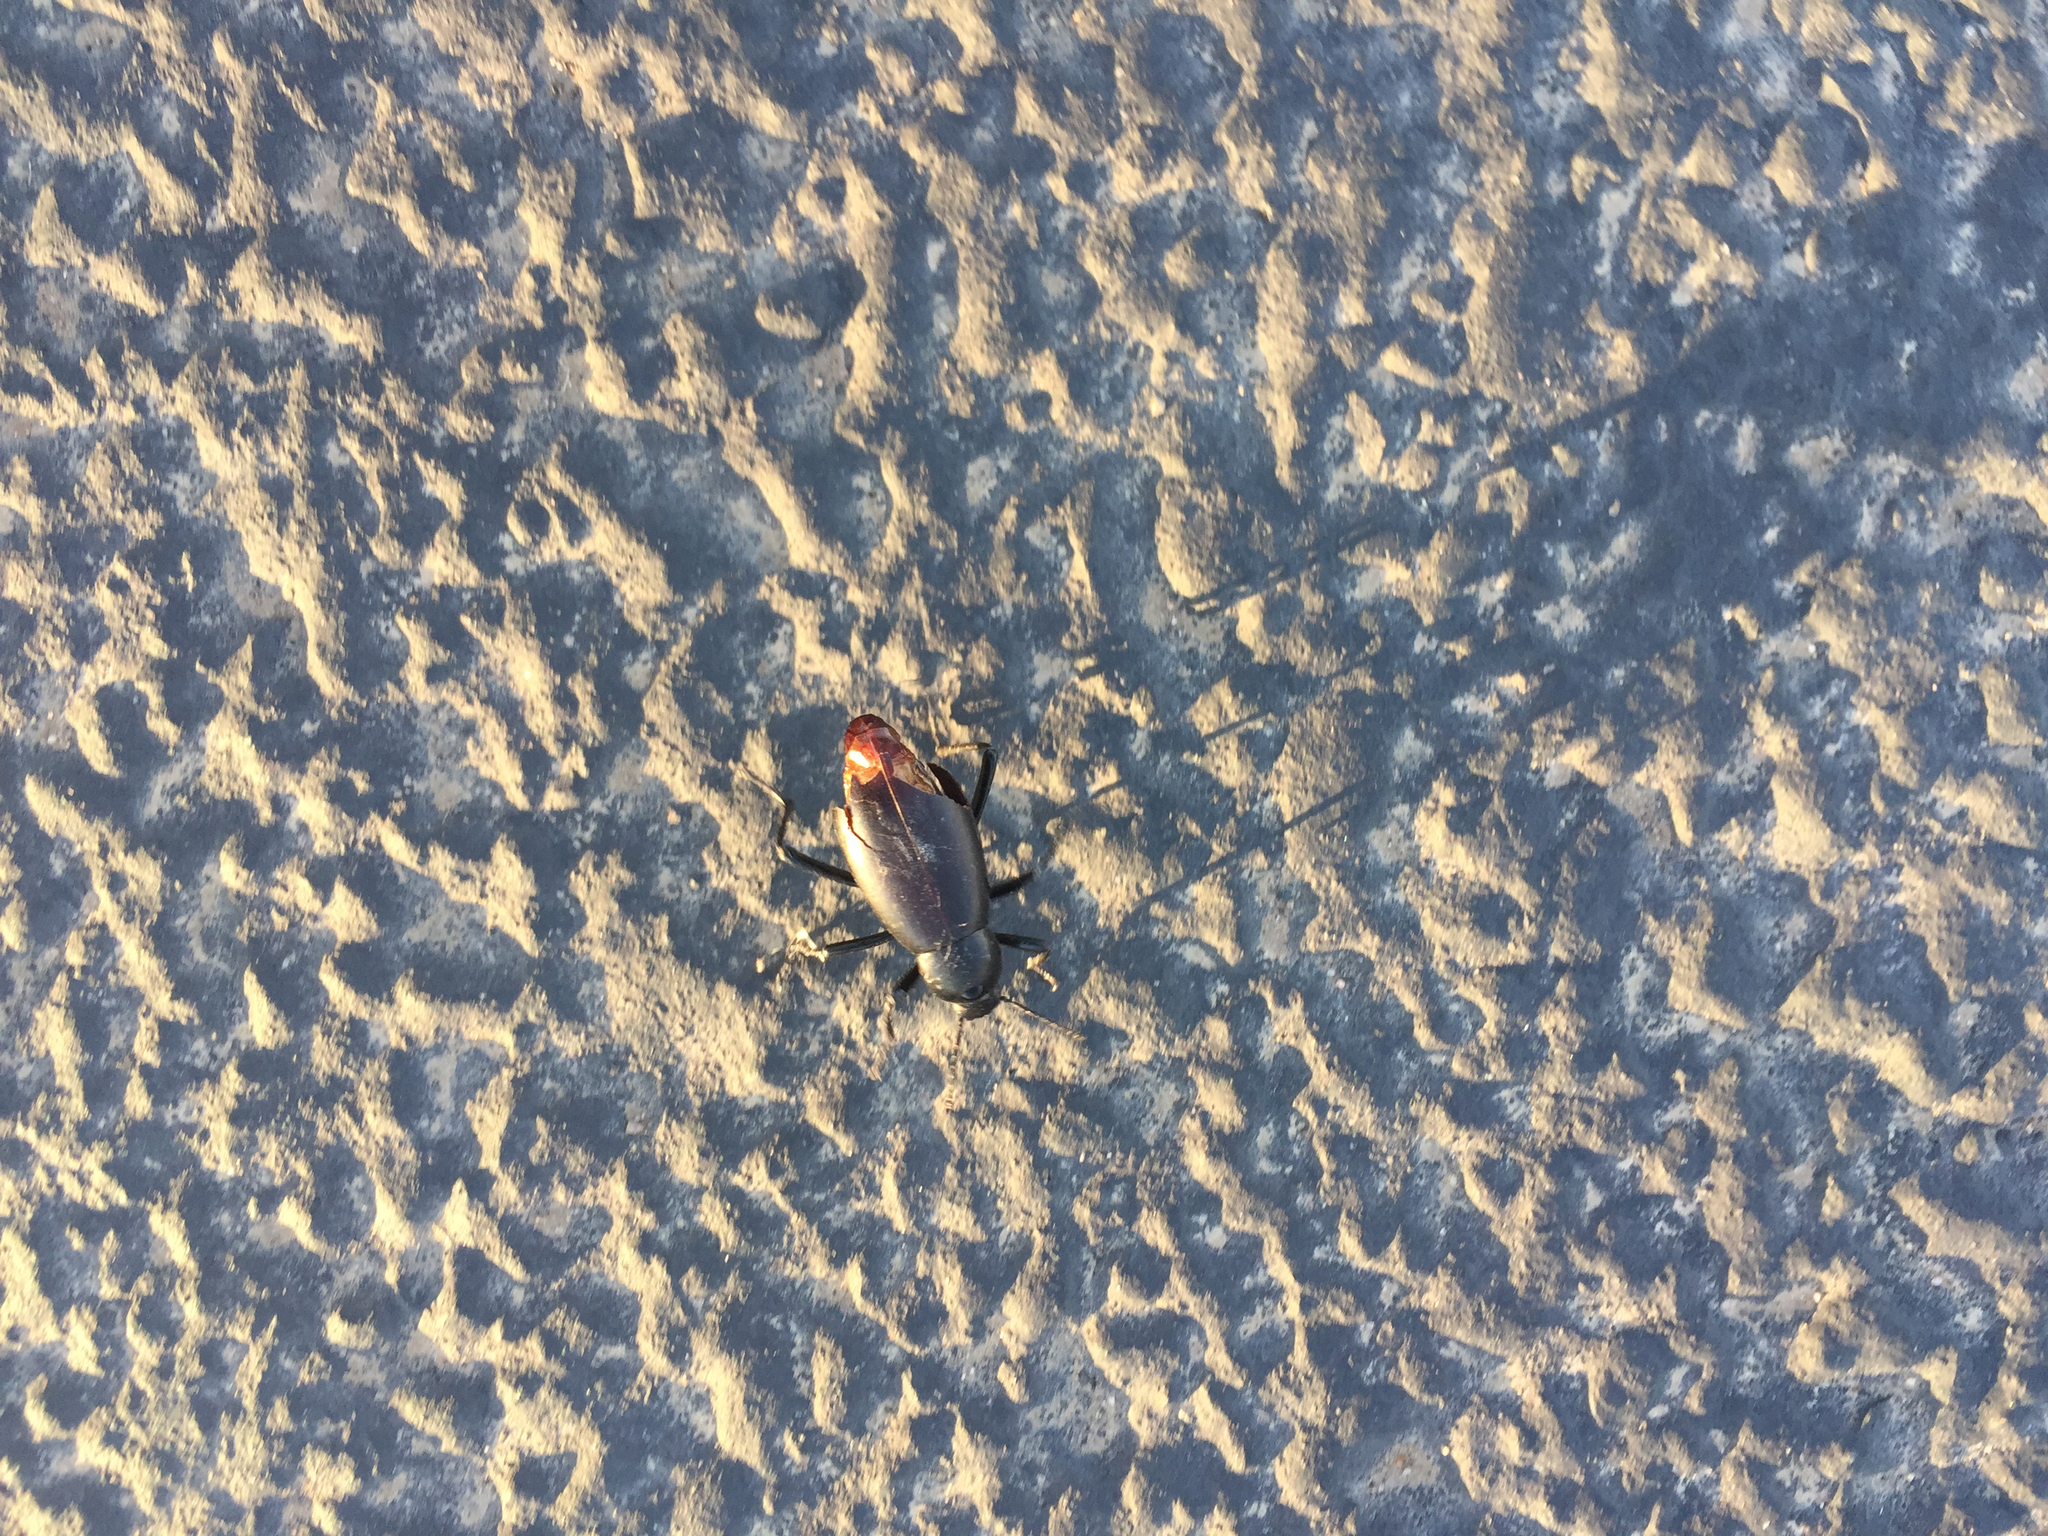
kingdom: Animalia
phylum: Arthropoda
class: Insecta
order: Coleoptera
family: Tenebrionidae
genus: Eleodes
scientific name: Eleodes longicollis
